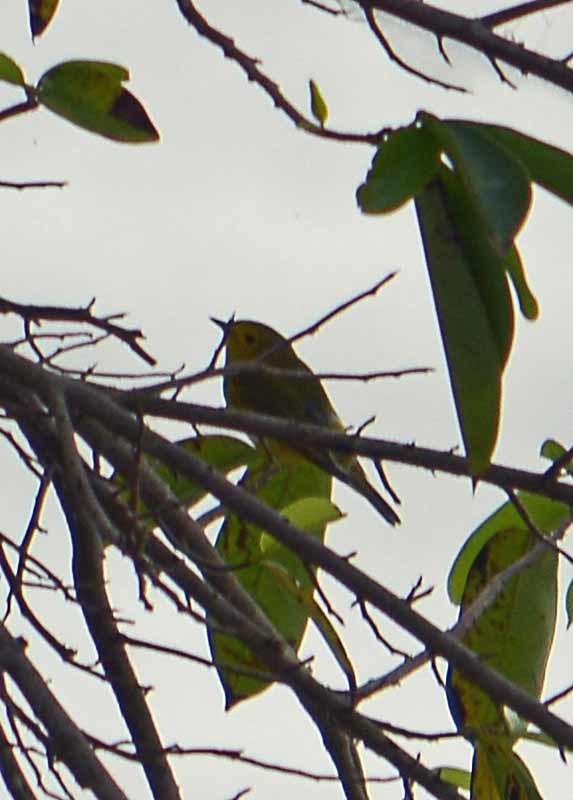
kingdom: Animalia
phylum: Chordata
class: Aves
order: Passeriformes
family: Parulidae
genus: Cardellina
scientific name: Cardellina pusilla
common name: Wilson's warbler
